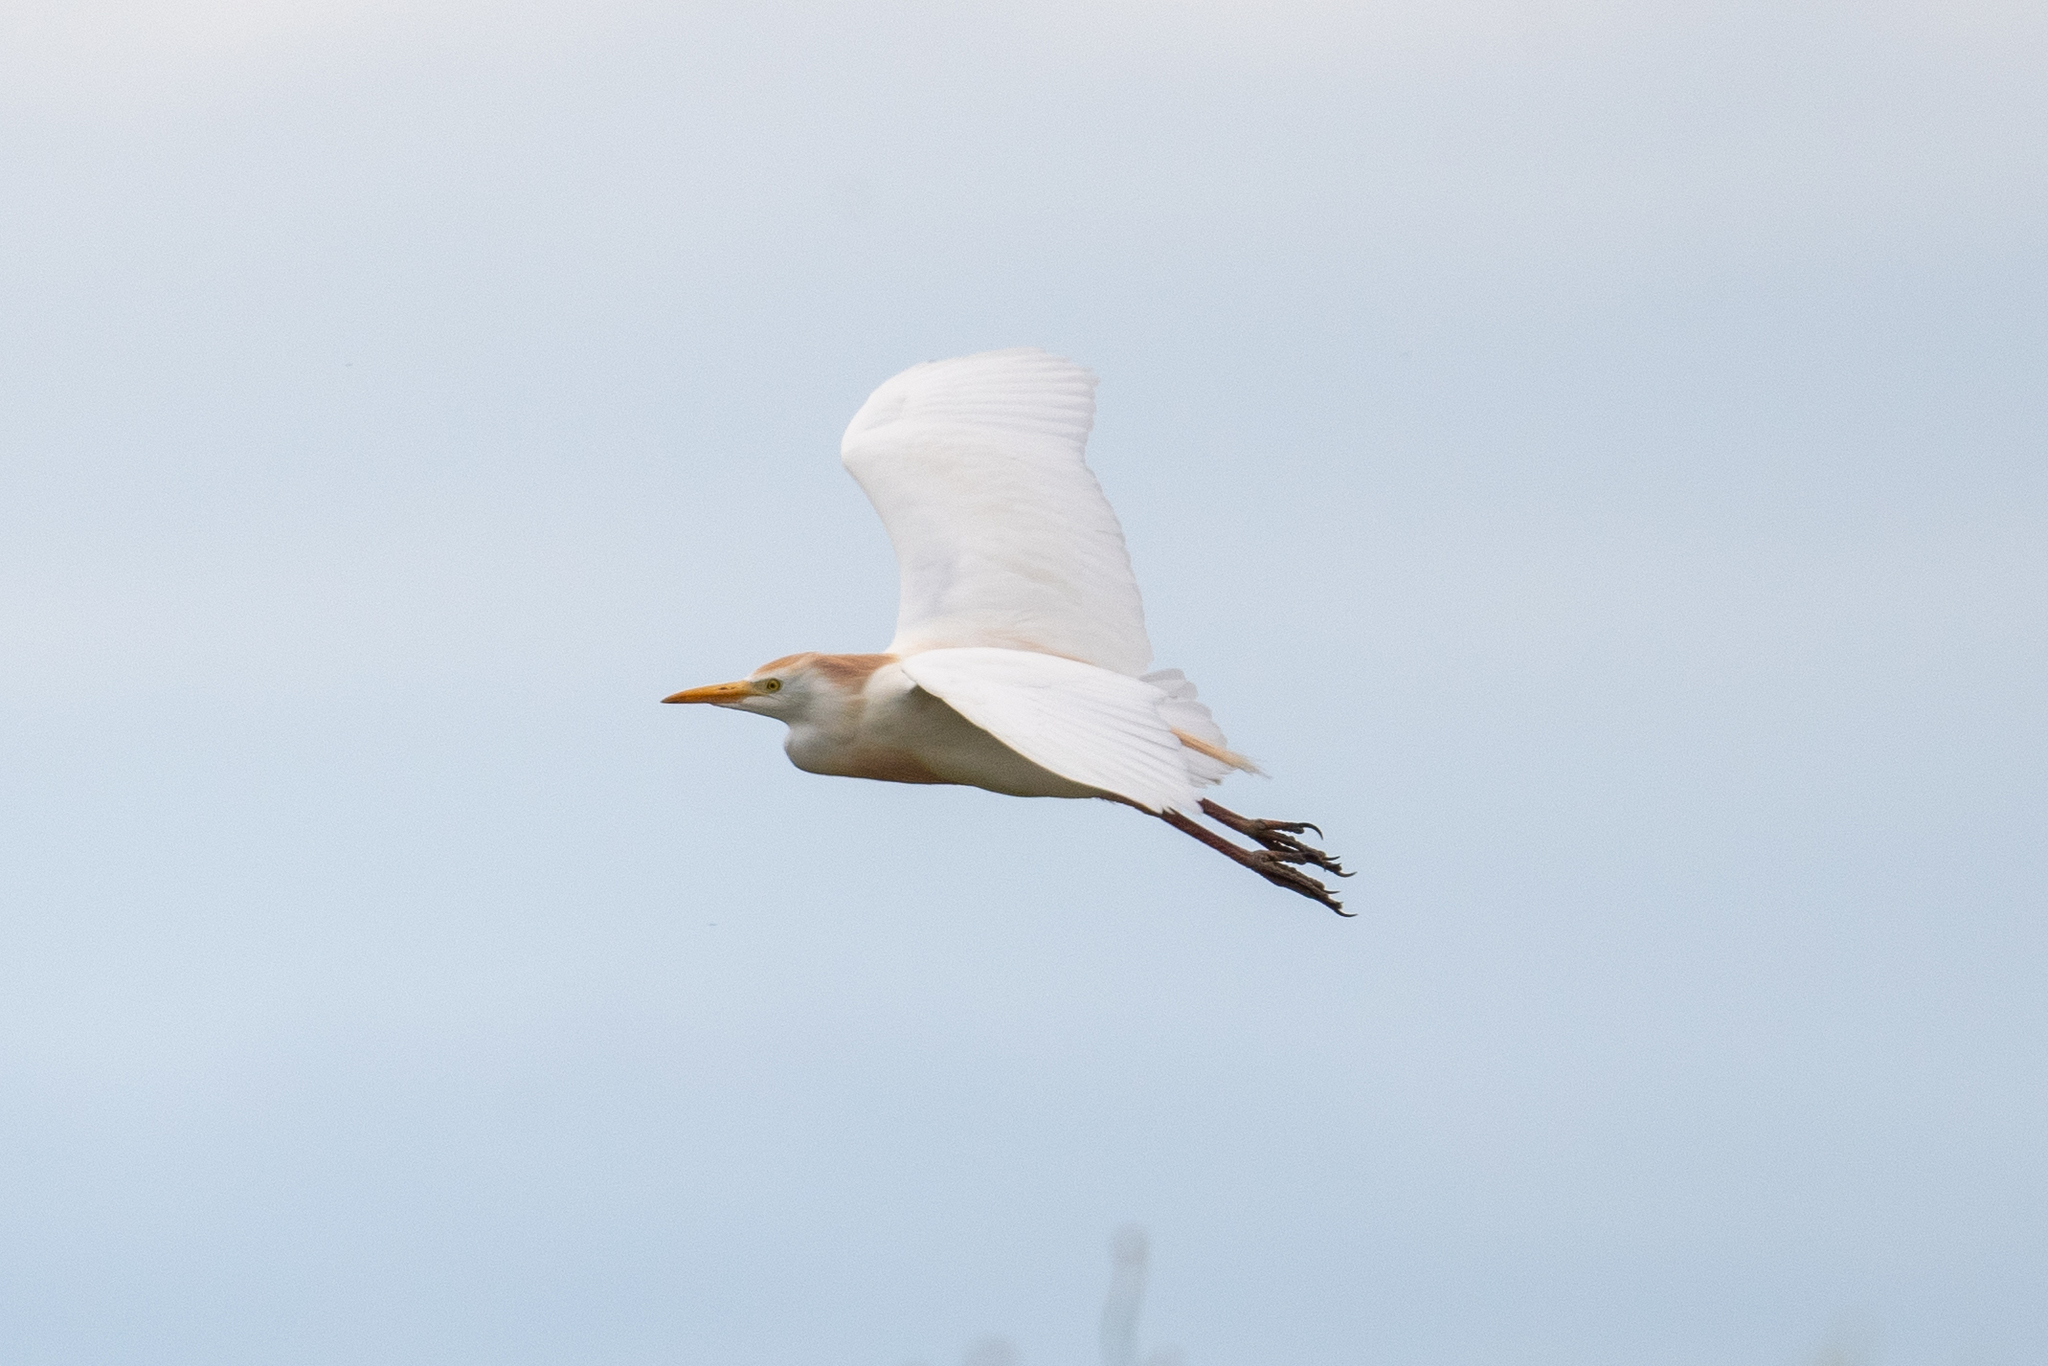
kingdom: Animalia
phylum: Chordata
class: Aves
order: Pelecaniformes
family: Ardeidae
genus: Bubulcus
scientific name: Bubulcus ibis
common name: Cattle egret
